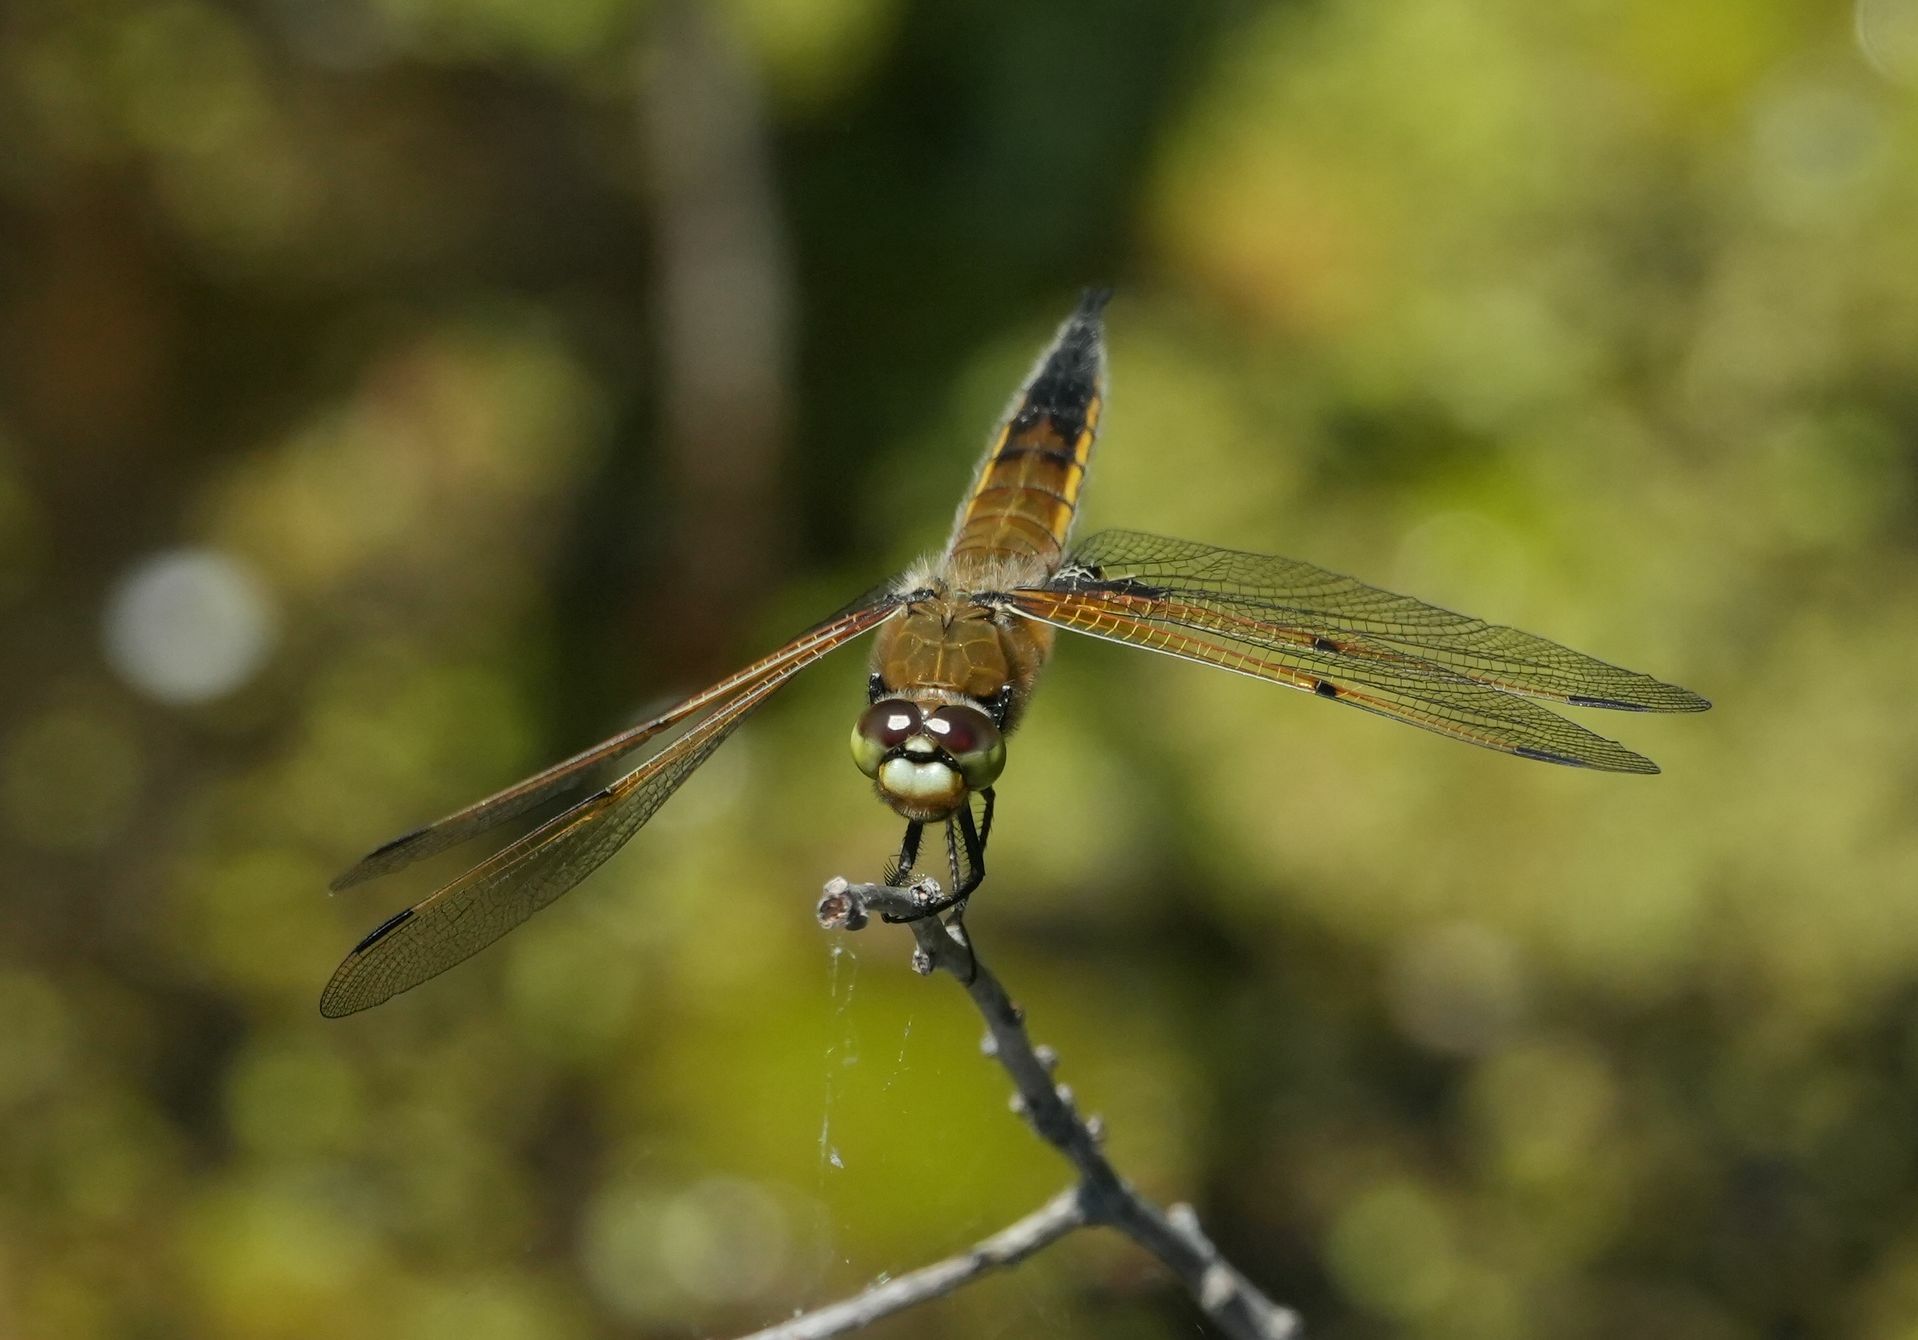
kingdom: Animalia
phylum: Arthropoda
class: Insecta
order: Odonata
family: Libellulidae
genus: Libellula
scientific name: Libellula quadrimaculata
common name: Four-spotted chaser
